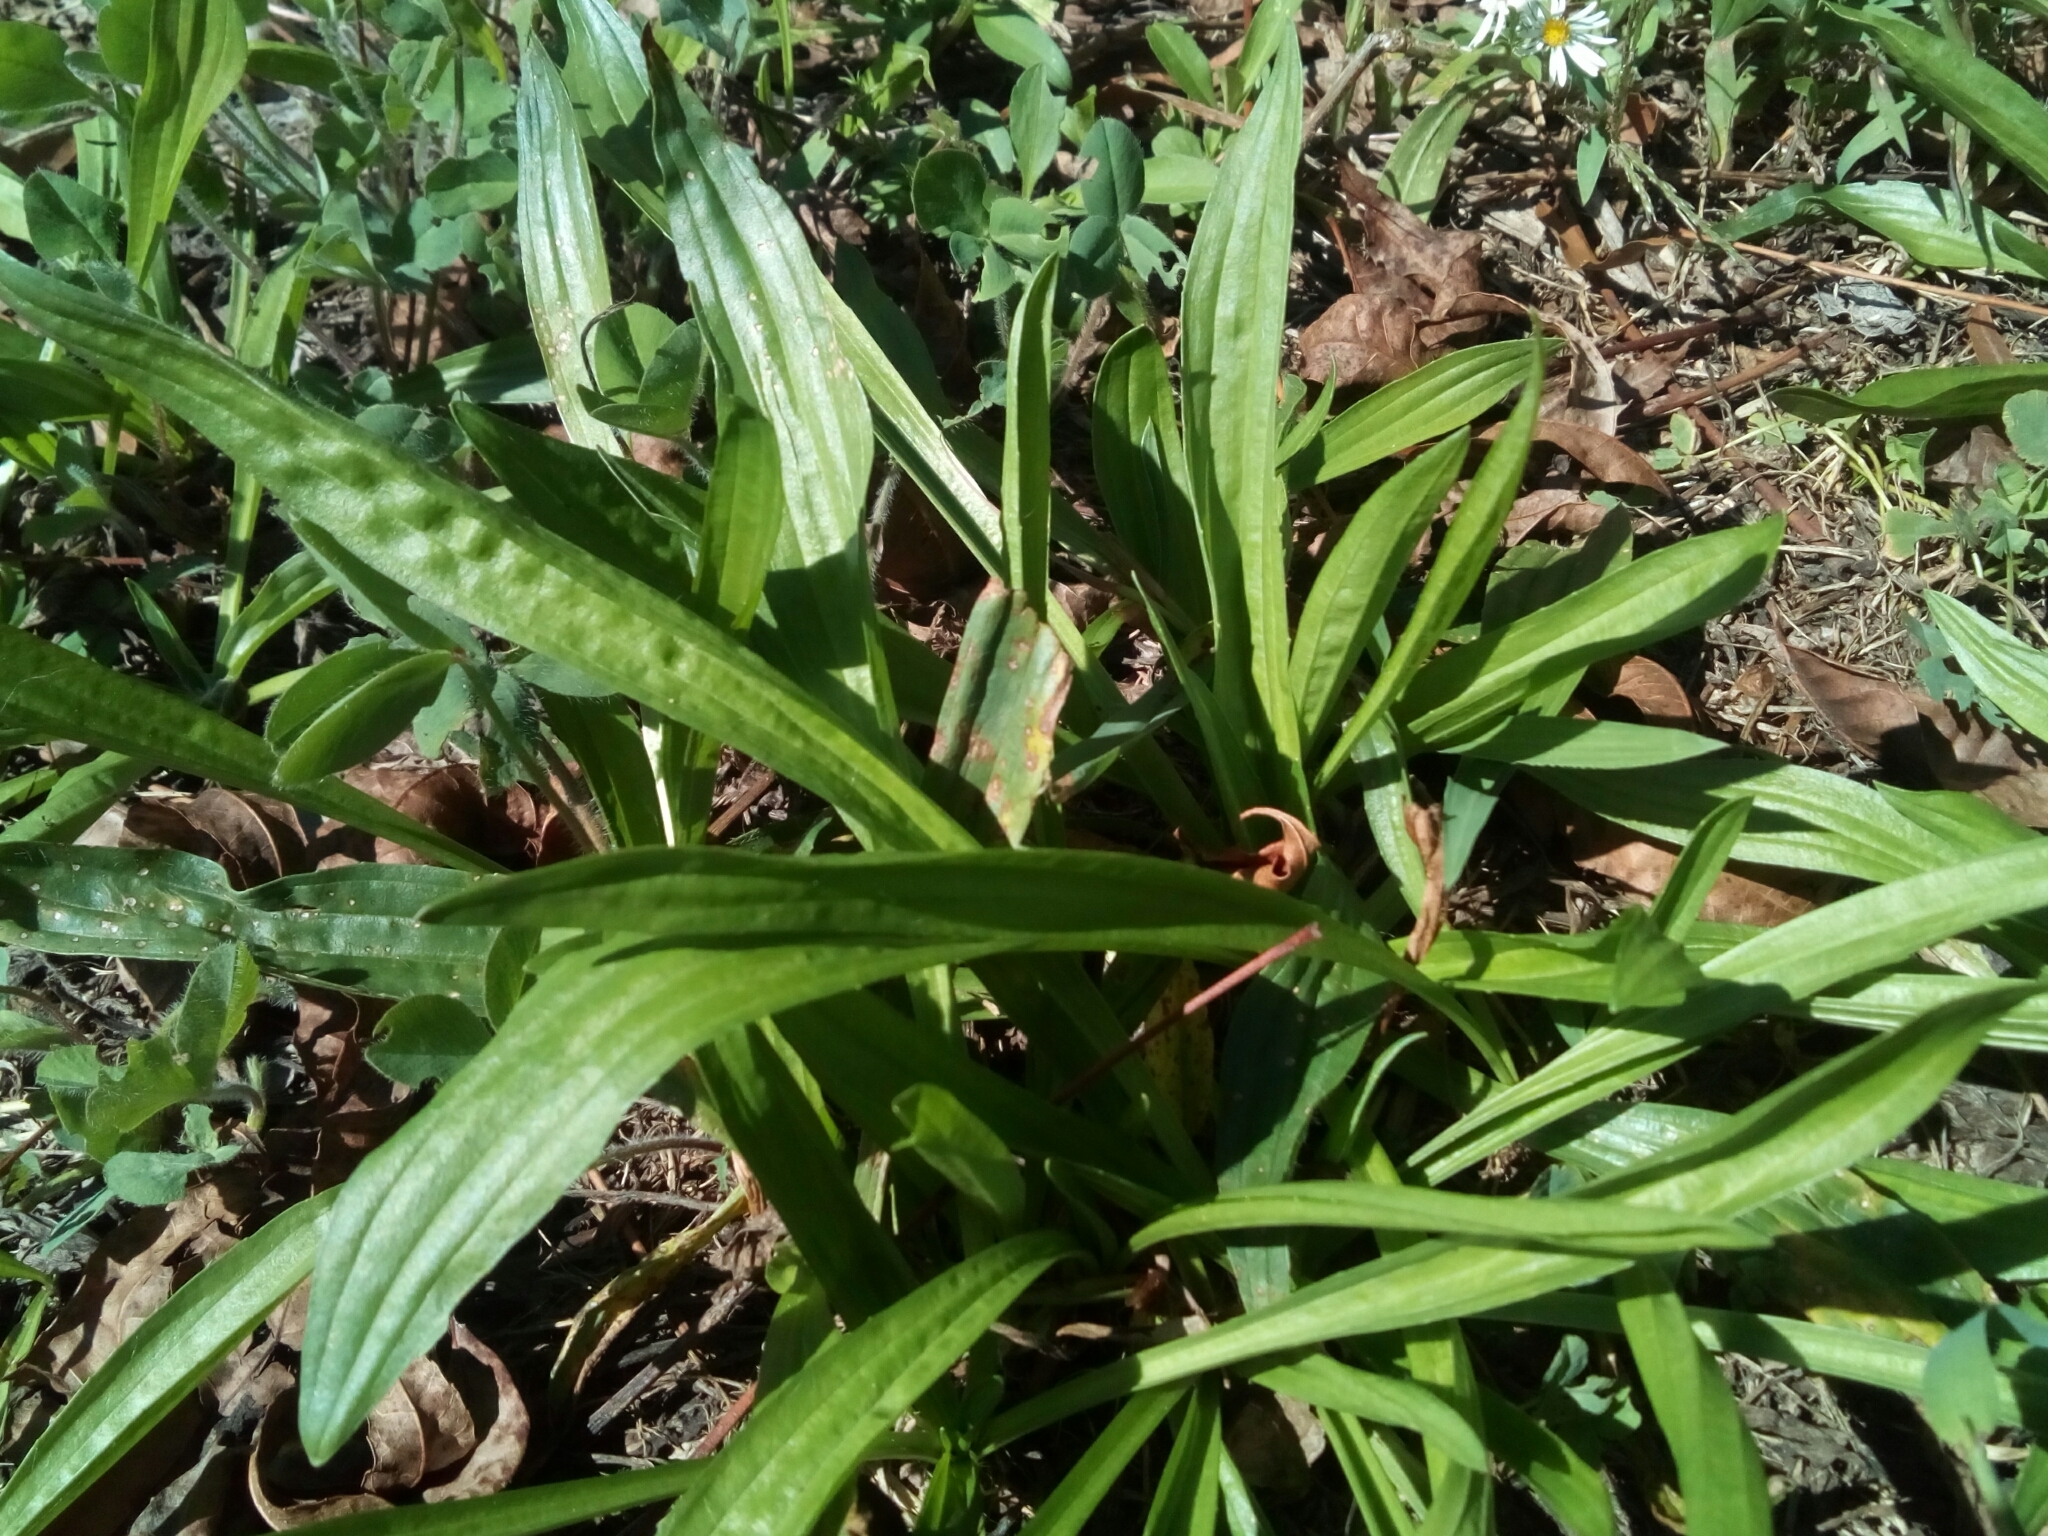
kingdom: Plantae
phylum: Tracheophyta
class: Magnoliopsida
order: Lamiales
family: Plantaginaceae
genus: Plantago
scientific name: Plantago lanceolata
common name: Ribwort plantain
